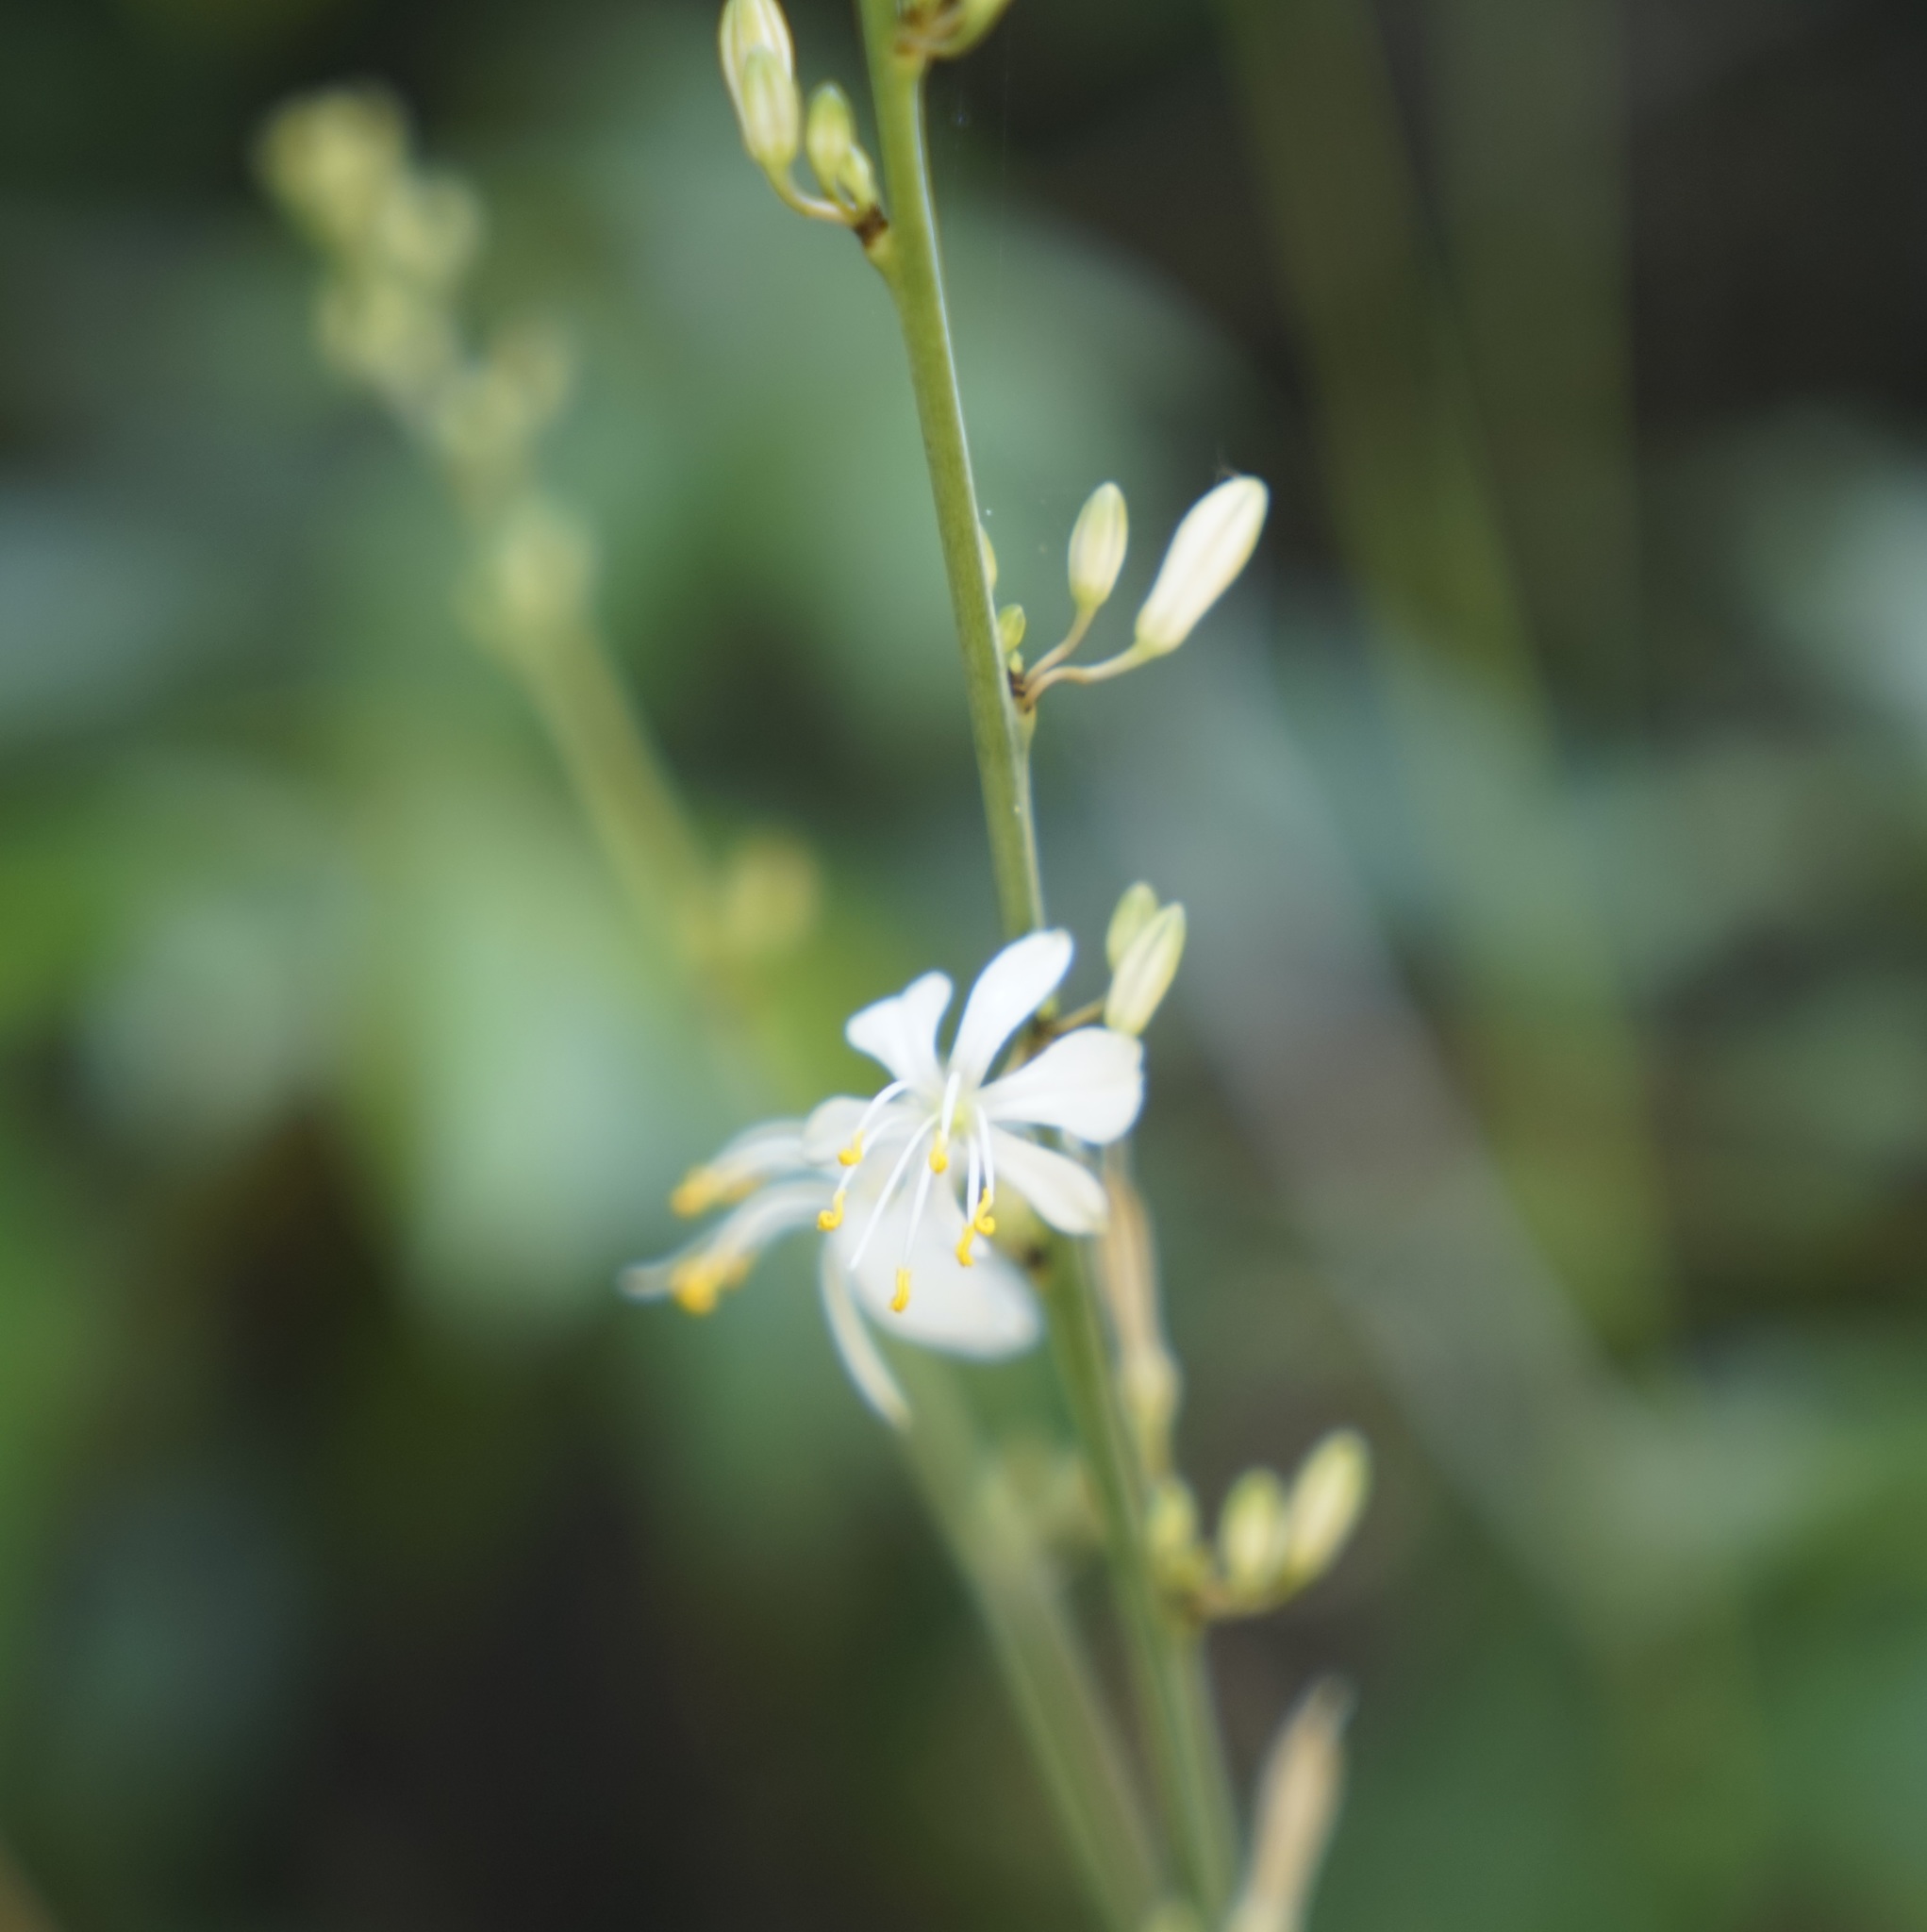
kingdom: Plantae
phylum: Tracheophyta
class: Liliopsida
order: Asparagales
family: Asparagaceae
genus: Chlorophytum
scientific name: Chlorophytum comosum
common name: Spider plant
